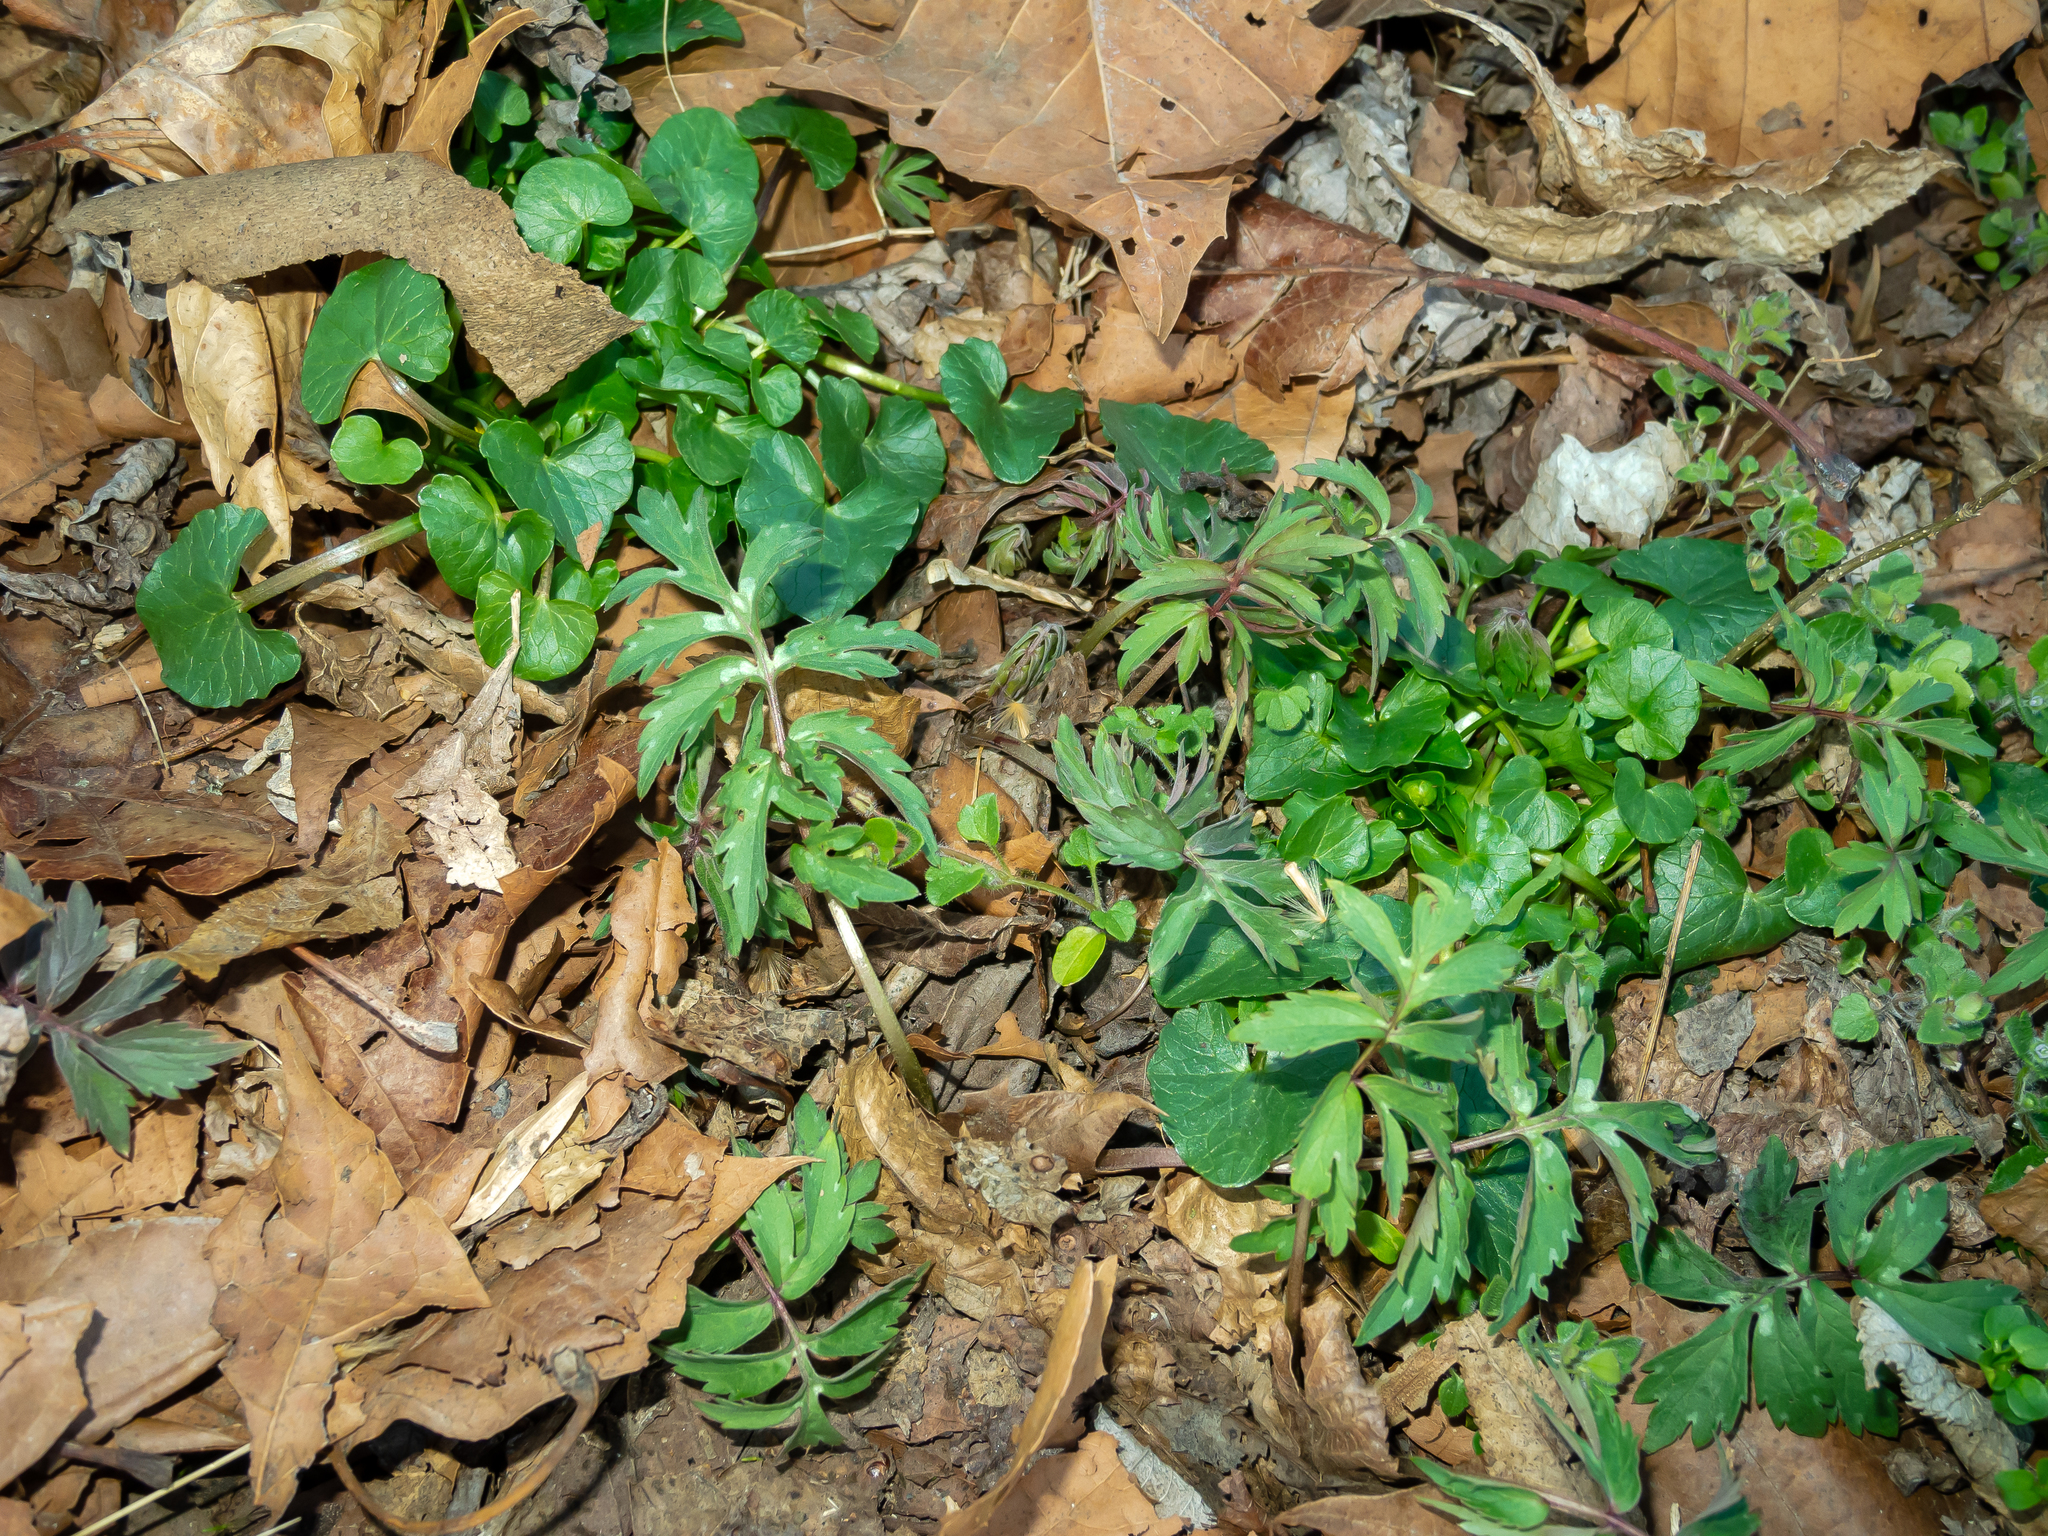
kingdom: Plantae
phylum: Tracheophyta
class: Magnoliopsida
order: Boraginales
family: Hydrophyllaceae
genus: Hydrophyllum
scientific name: Hydrophyllum virginianum
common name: Virginia waterleaf
